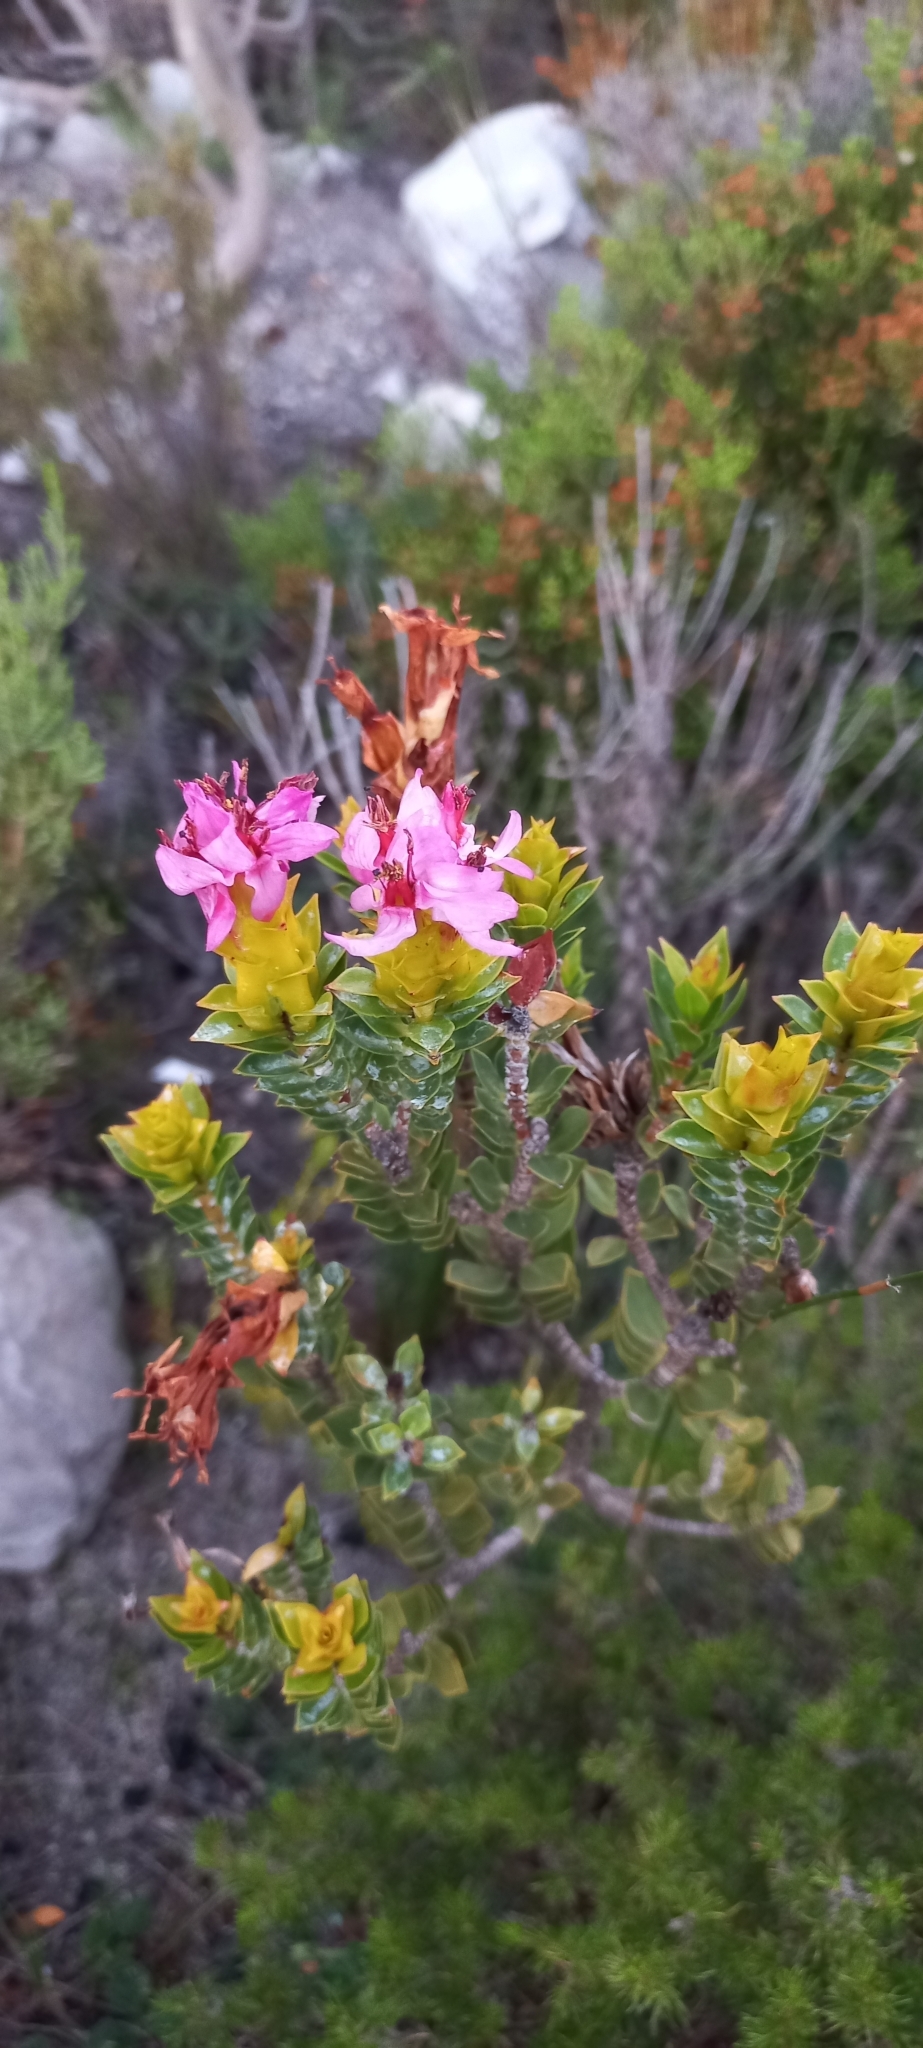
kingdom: Plantae
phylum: Tracheophyta
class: Magnoliopsida
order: Myrtales
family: Penaeaceae
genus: Saltera
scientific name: Saltera sarcocolla
